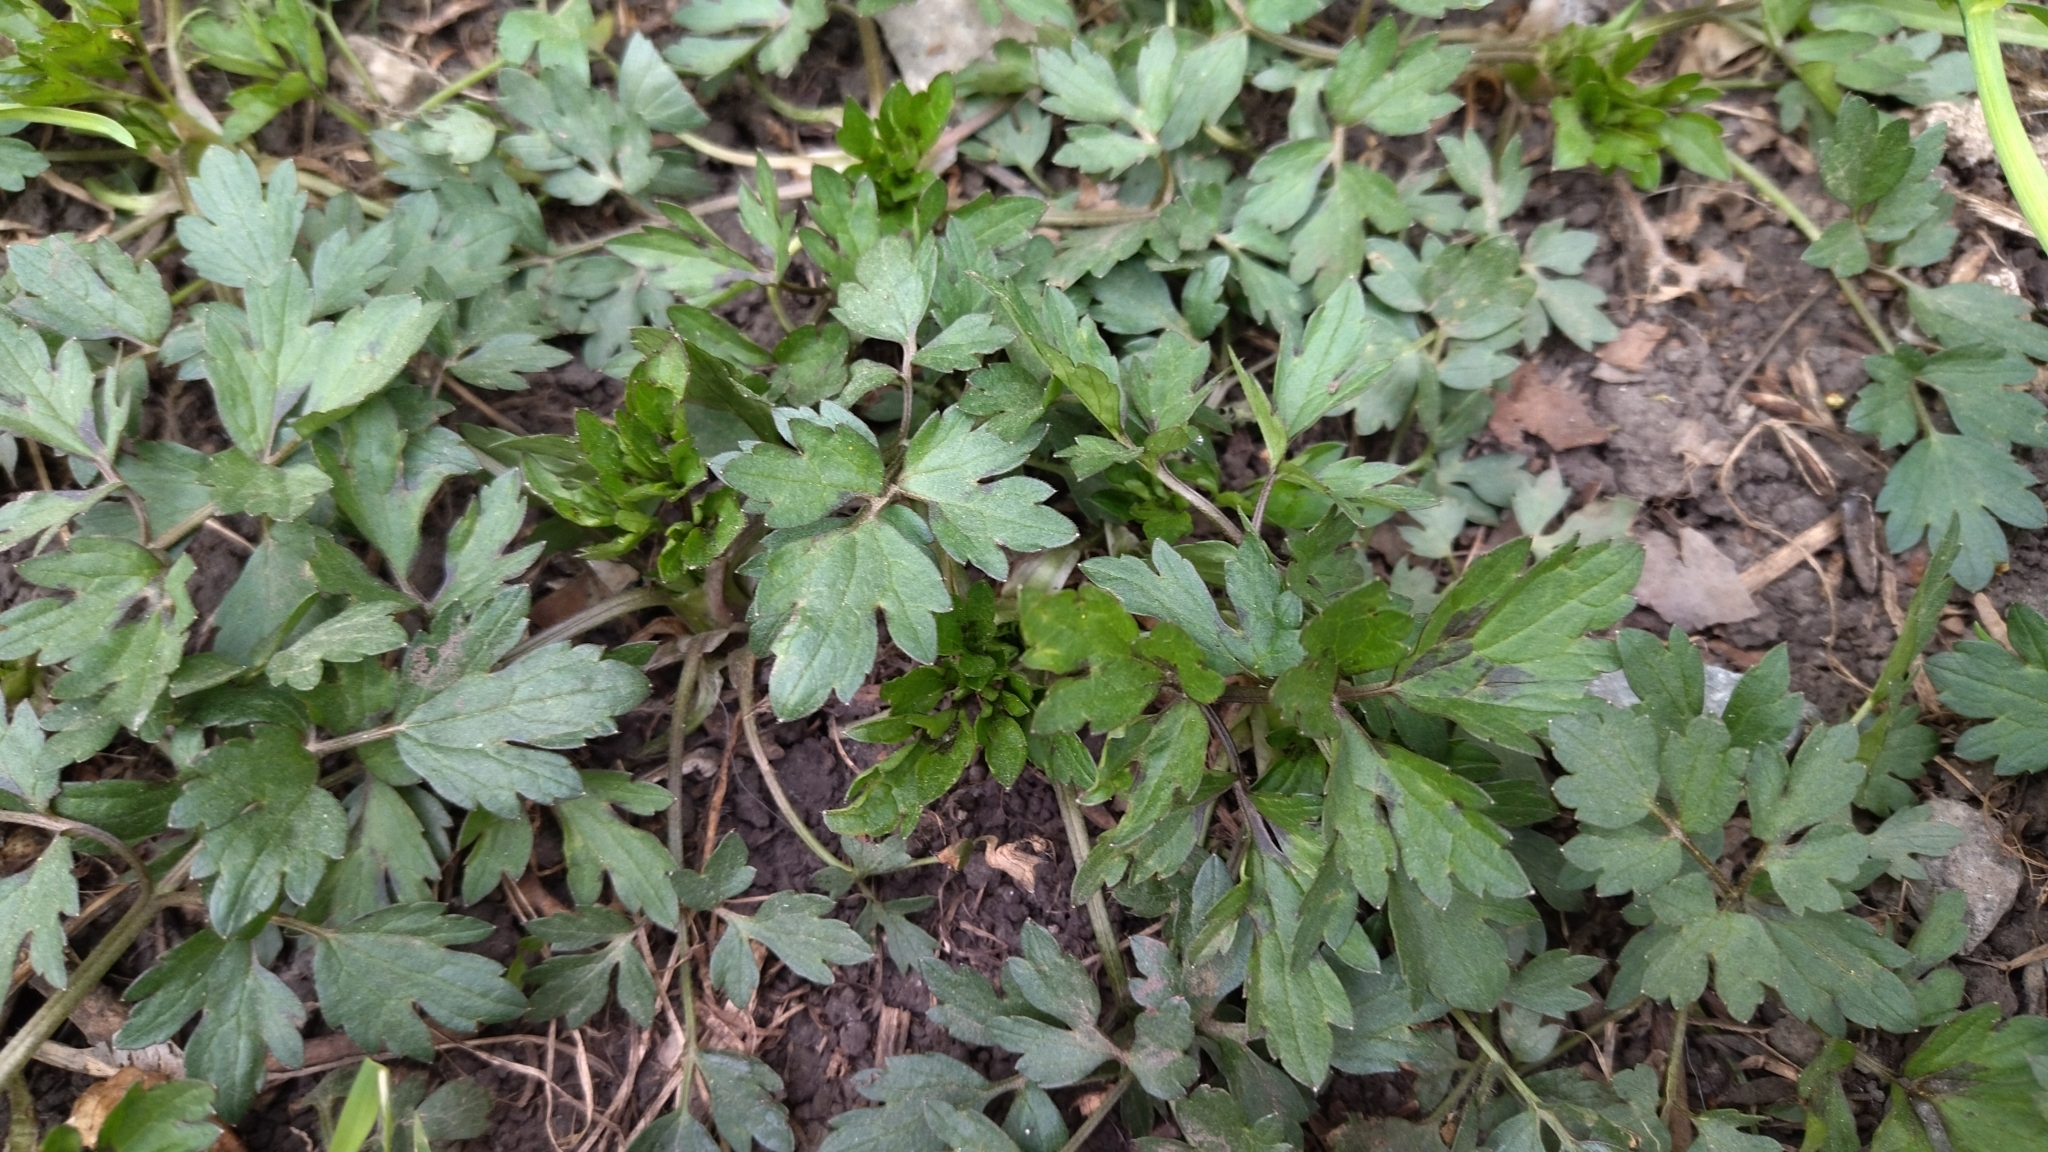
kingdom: Plantae
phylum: Tracheophyta
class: Magnoliopsida
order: Ranunculales
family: Ranunculaceae
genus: Ranunculus
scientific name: Ranunculus repens
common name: Creeping buttercup
